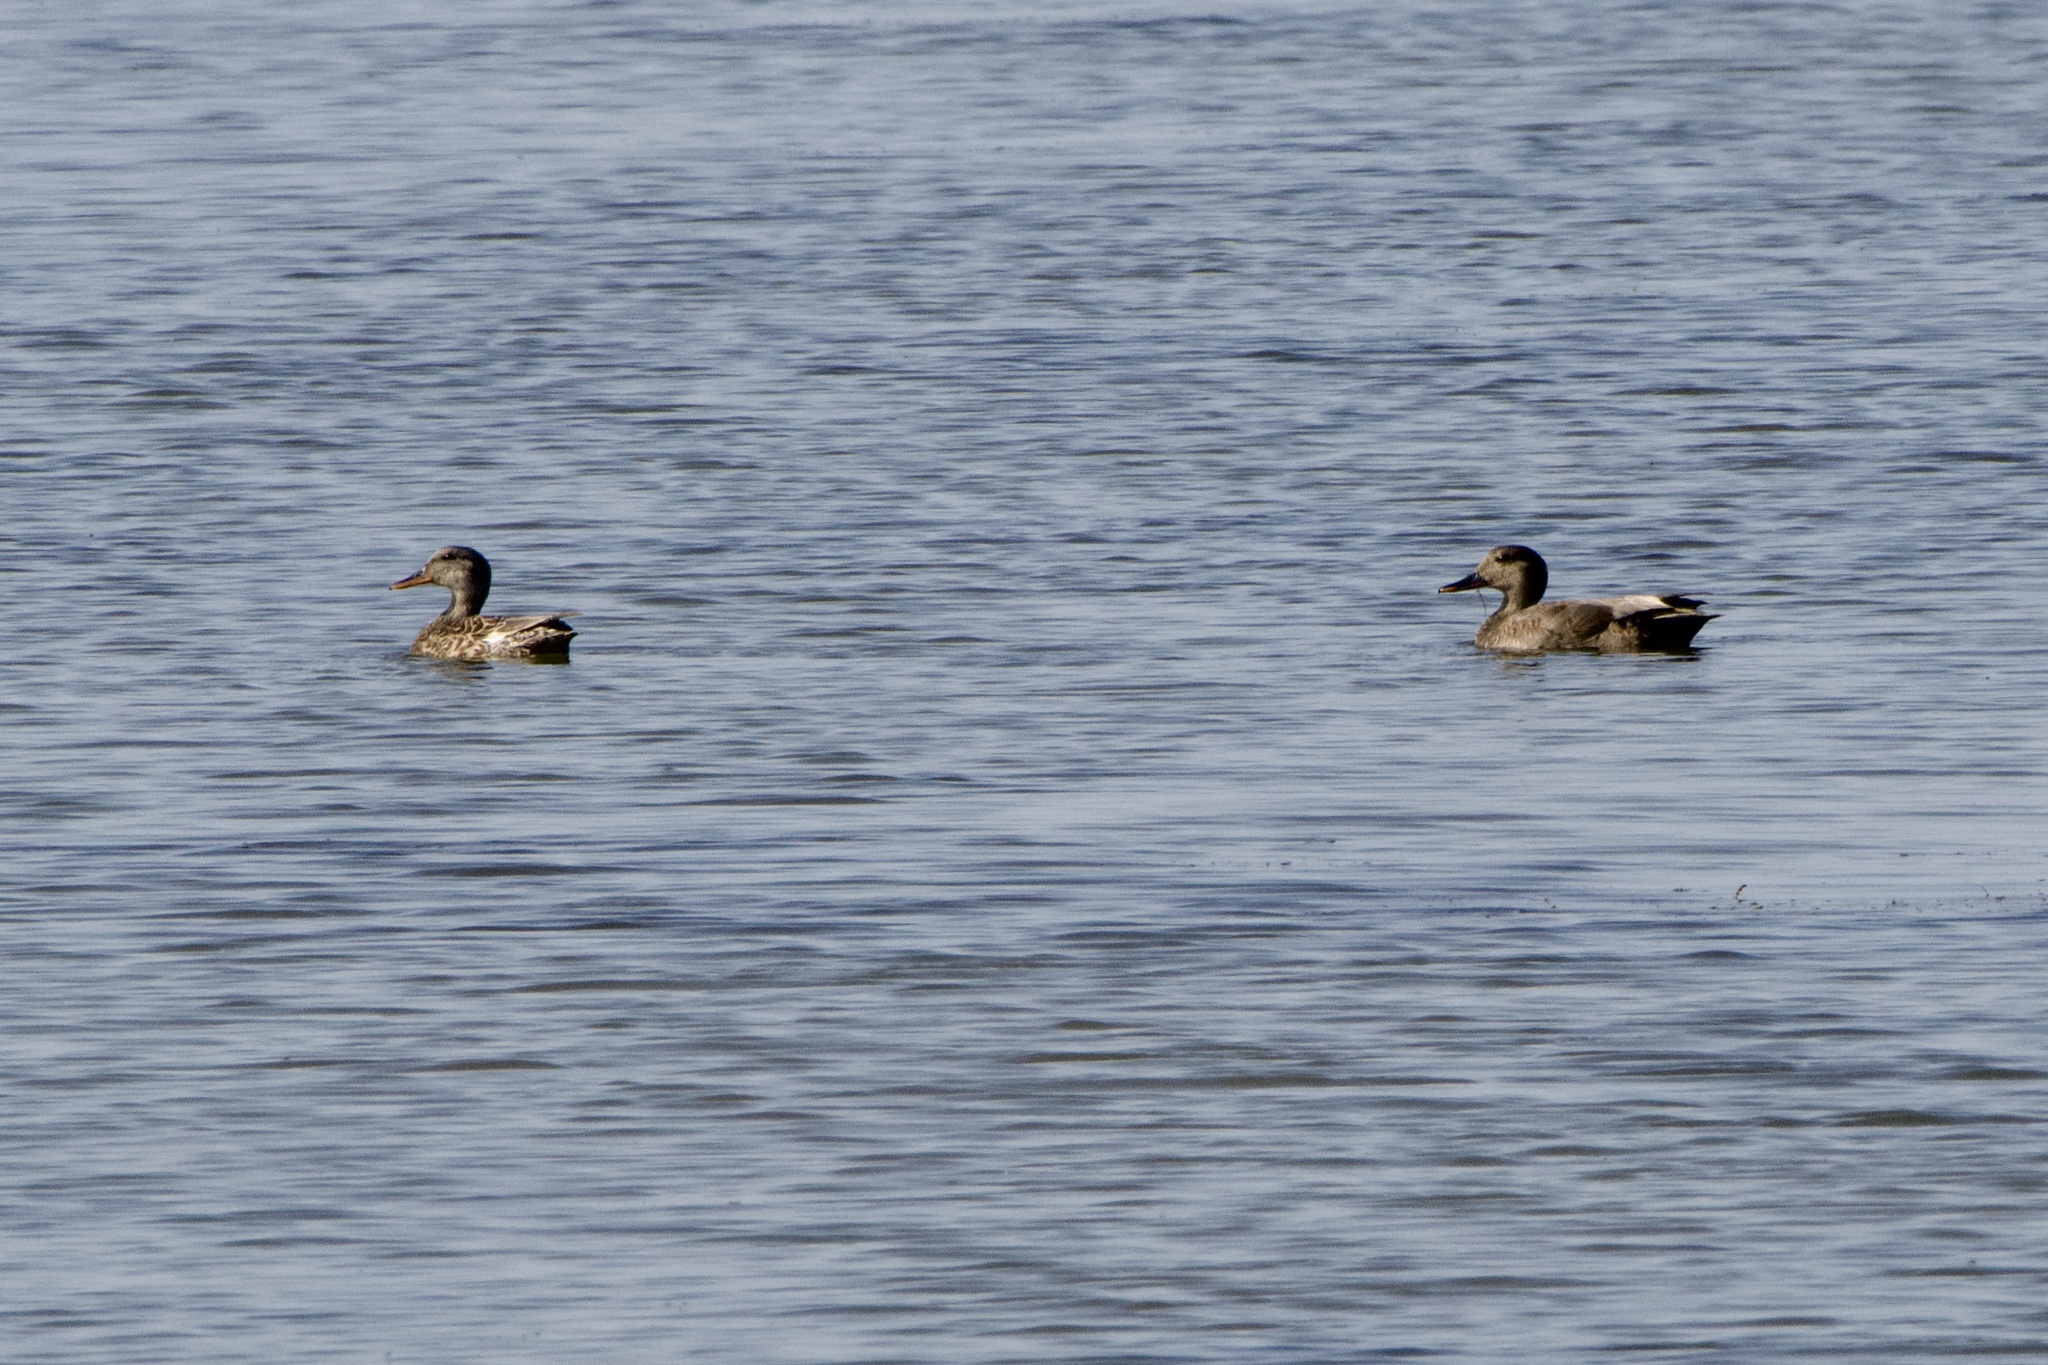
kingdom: Animalia
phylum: Chordata
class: Aves
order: Anseriformes
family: Anatidae
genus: Mareca
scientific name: Mareca strepera
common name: Gadwall
